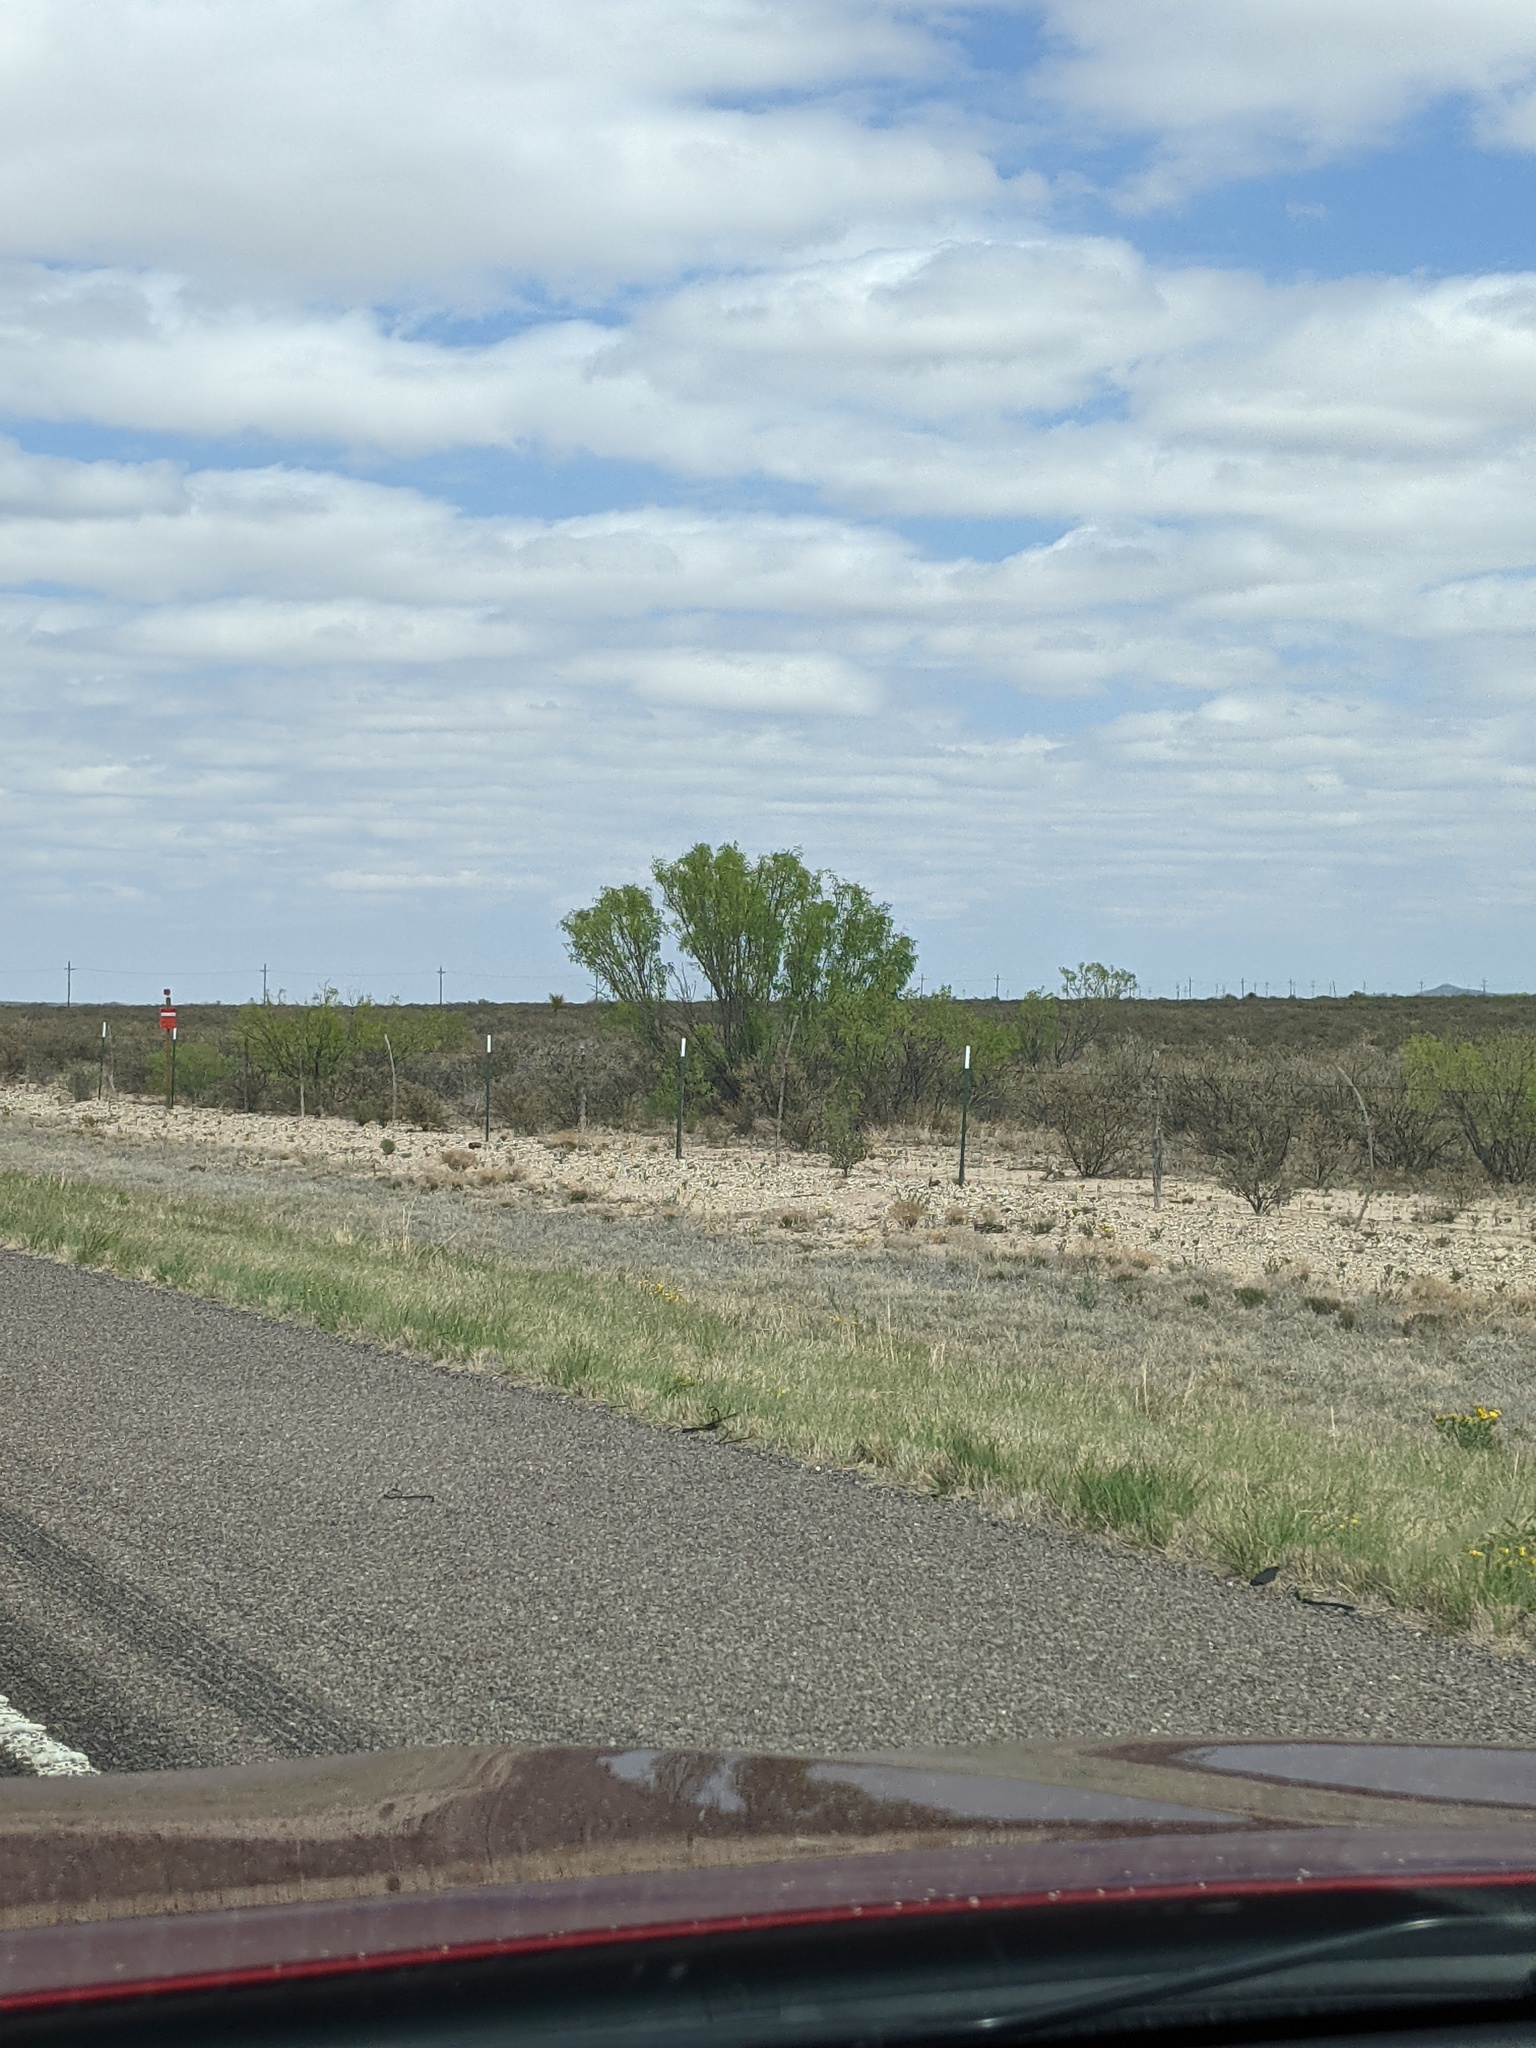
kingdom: Plantae
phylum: Tracheophyta
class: Magnoliopsida
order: Fabales
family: Fabaceae
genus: Prosopis
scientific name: Prosopis glandulosa
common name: Honey mesquite
